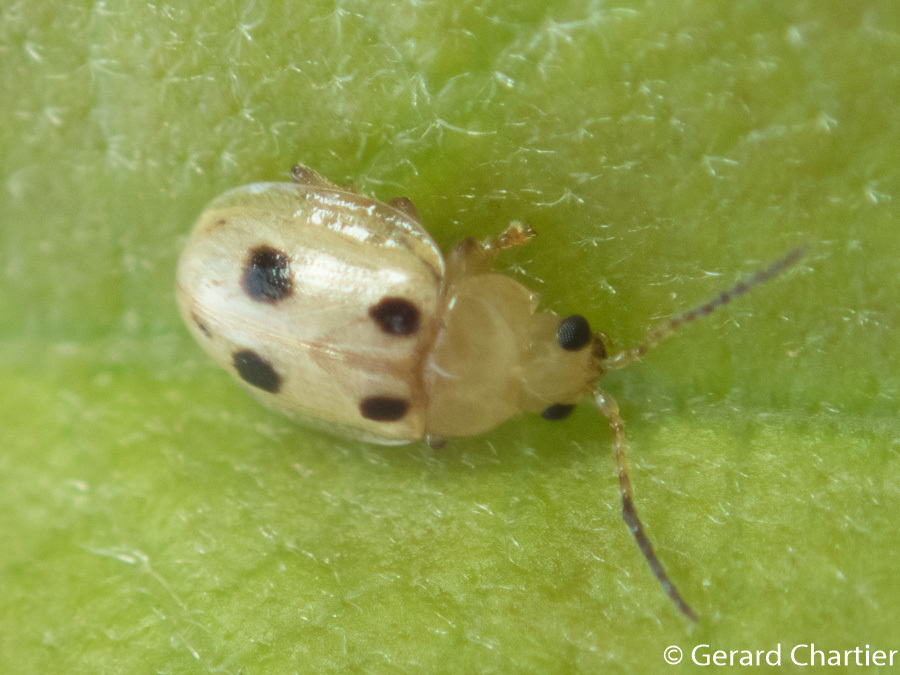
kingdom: Animalia
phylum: Arthropoda
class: Insecta
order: Coleoptera
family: Chrysomelidae
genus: Erystus
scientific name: Erystus
